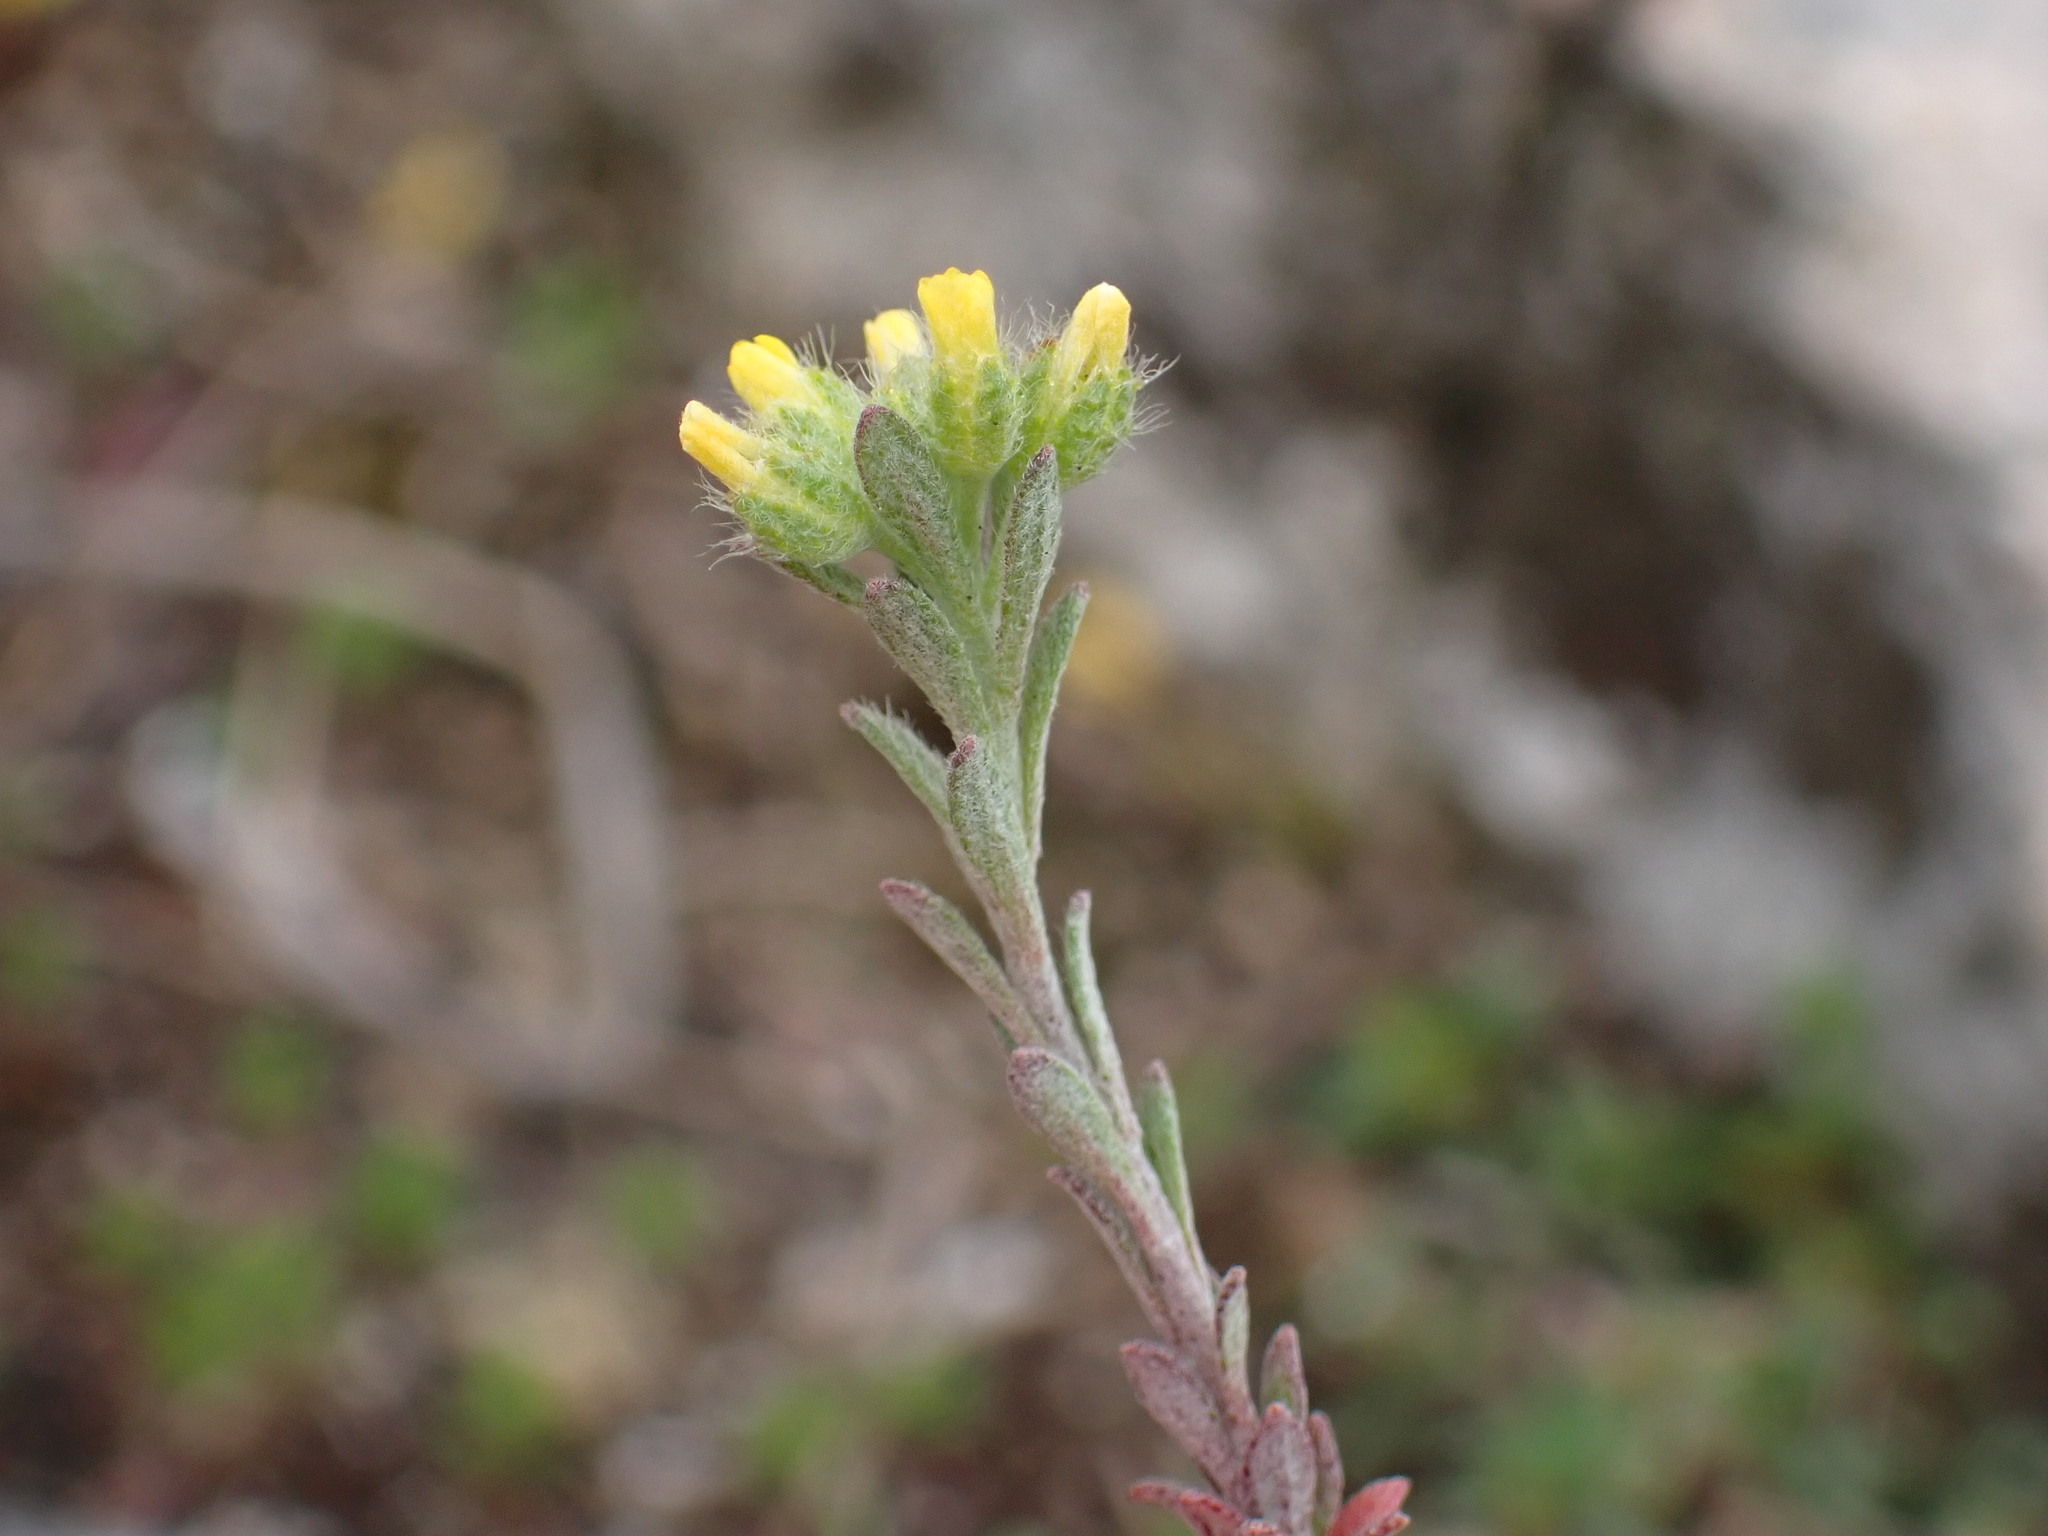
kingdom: Plantae
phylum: Tracheophyta
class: Magnoliopsida
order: Brassicales
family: Brassicaceae
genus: Alyssum
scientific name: Alyssum alyssoides
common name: Small alison
